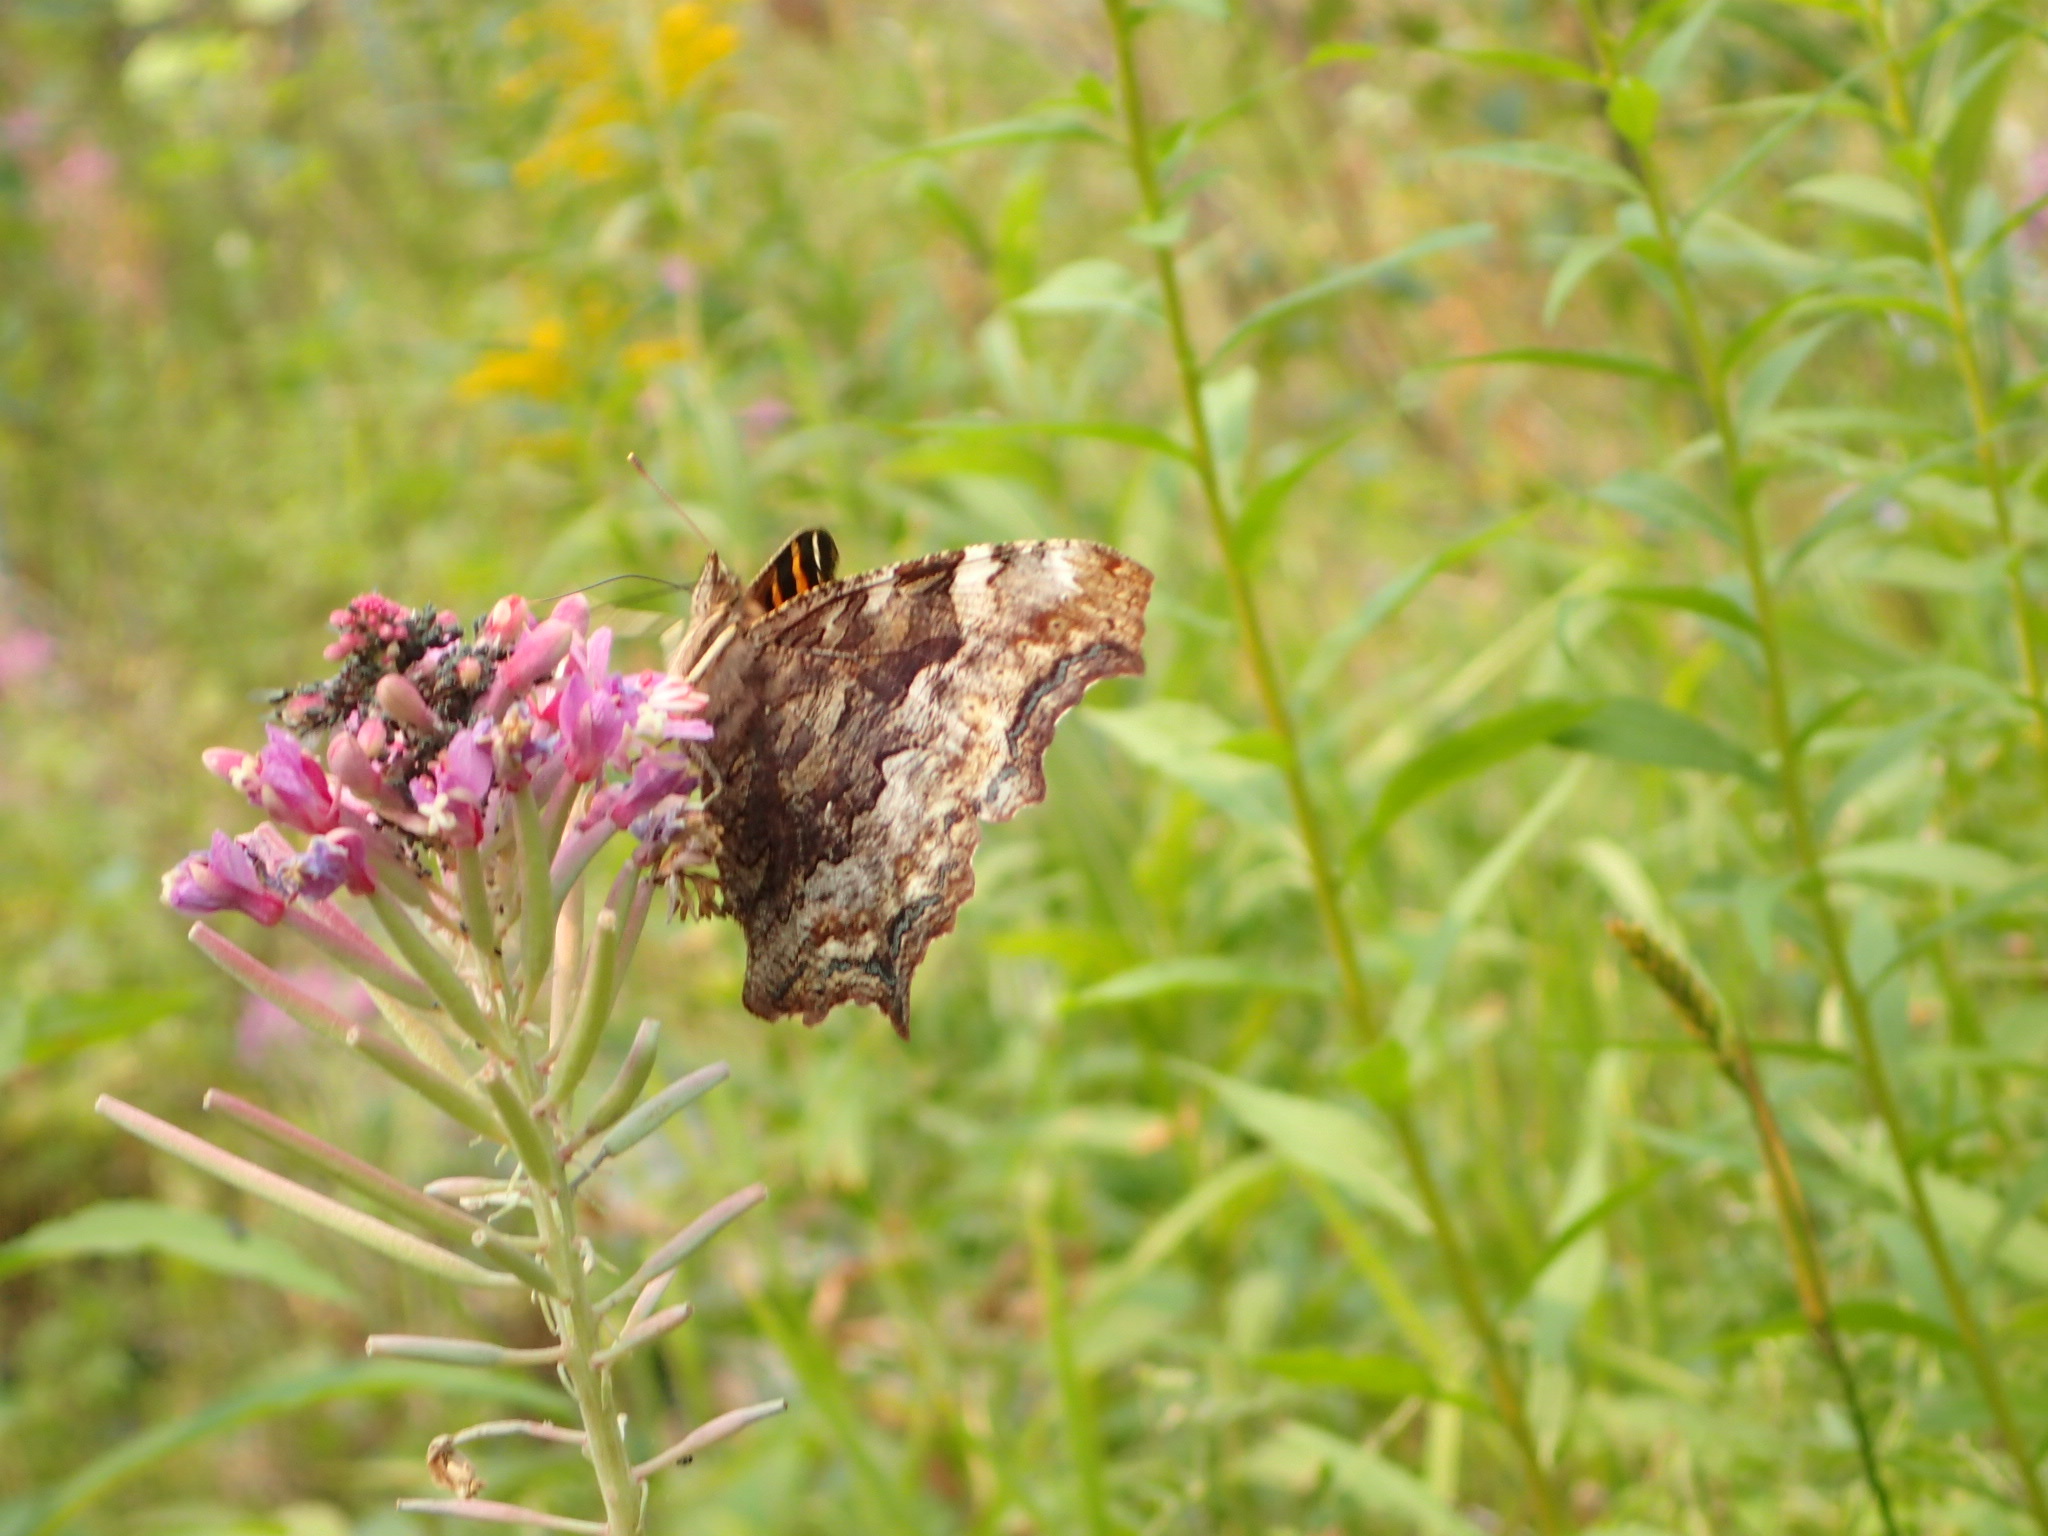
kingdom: Animalia
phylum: Arthropoda
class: Insecta
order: Lepidoptera
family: Nymphalidae
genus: Polygonia
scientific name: Polygonia vaualbum
